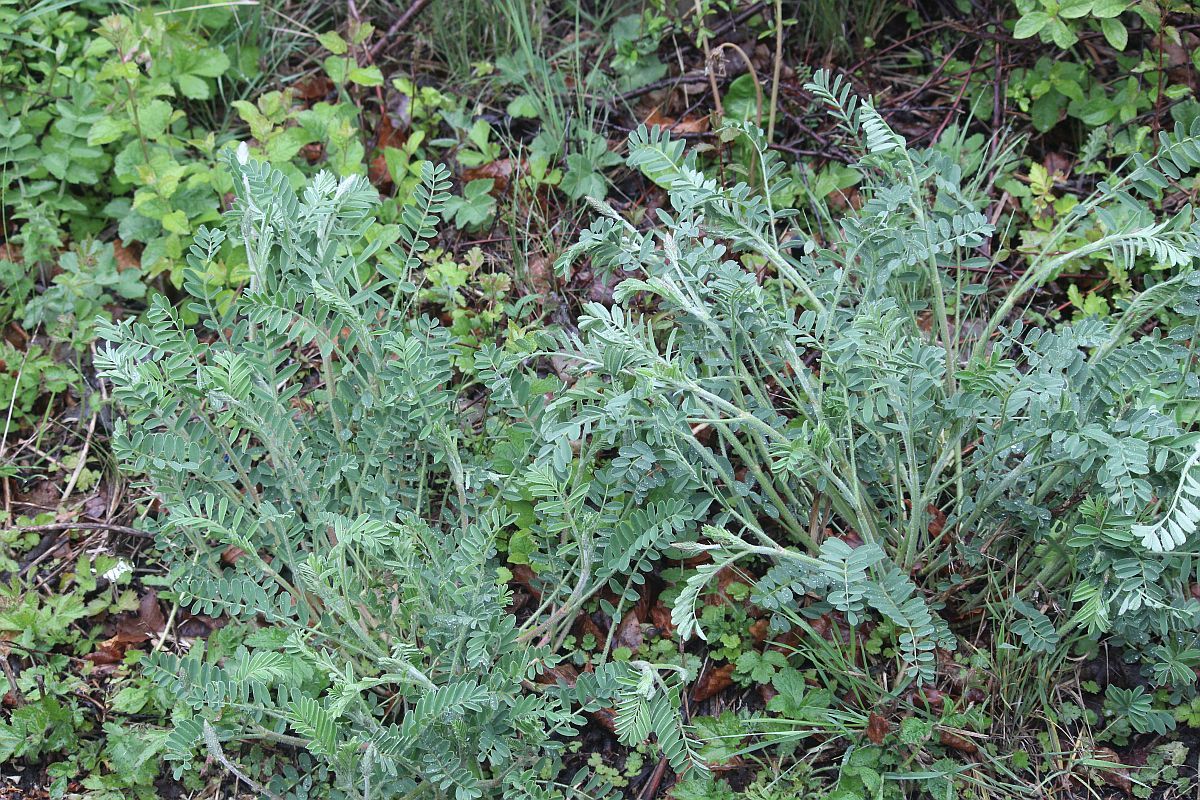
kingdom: Plantae
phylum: Tracheophyta
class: Magnoliopsida
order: Fabales
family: Fabaceae
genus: Onobrychis
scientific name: Onobrychis viciifolia
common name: Sainfoin
